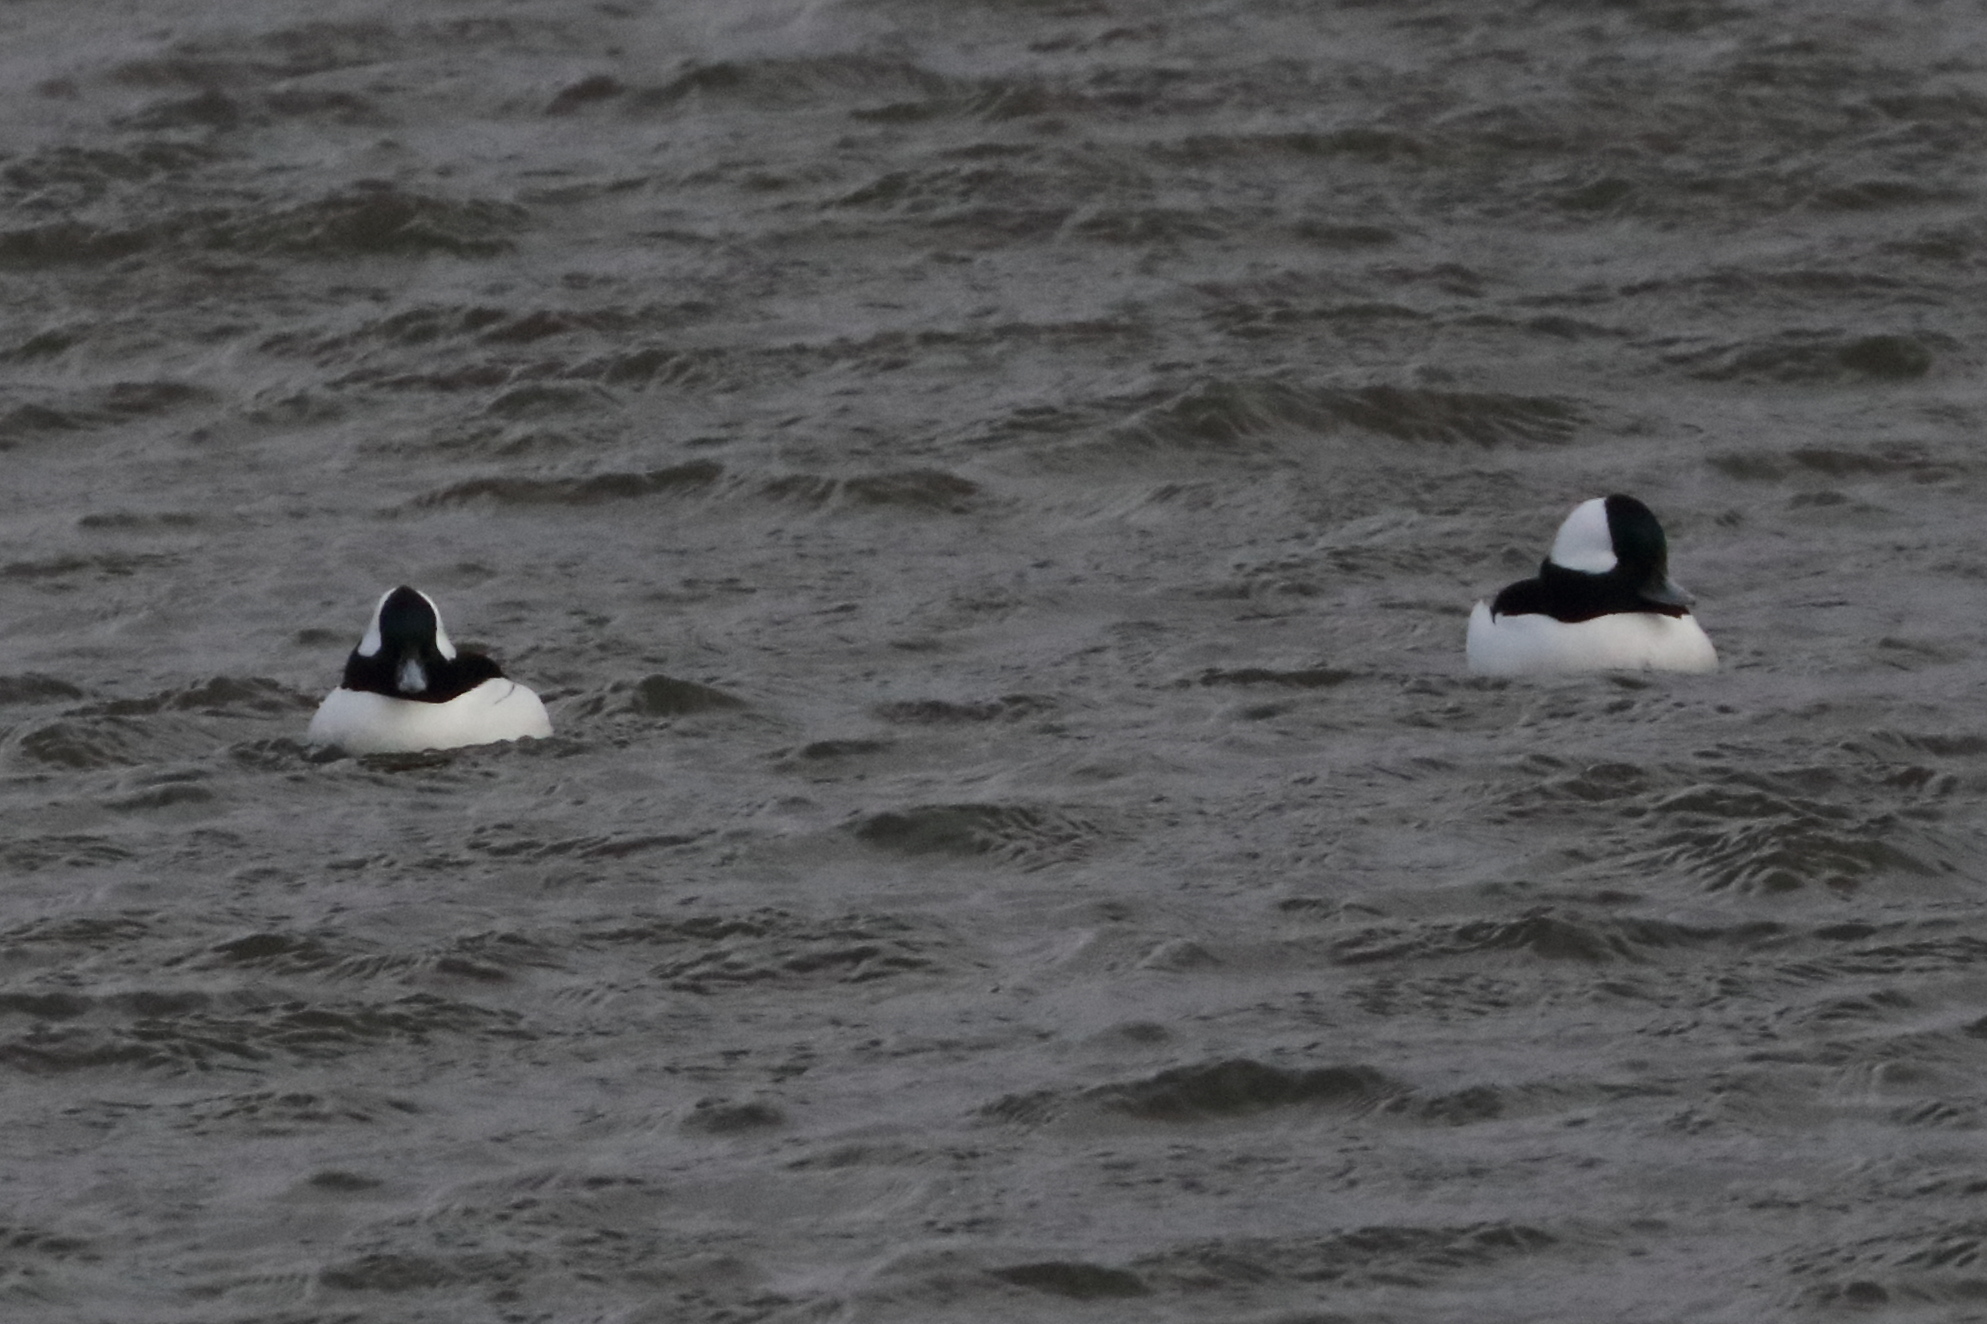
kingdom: Animalia
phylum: Chordata
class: Aves
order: Anseriformes
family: Anatidae
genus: Bucephala
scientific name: Bucephala albeola
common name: Bufflehead
